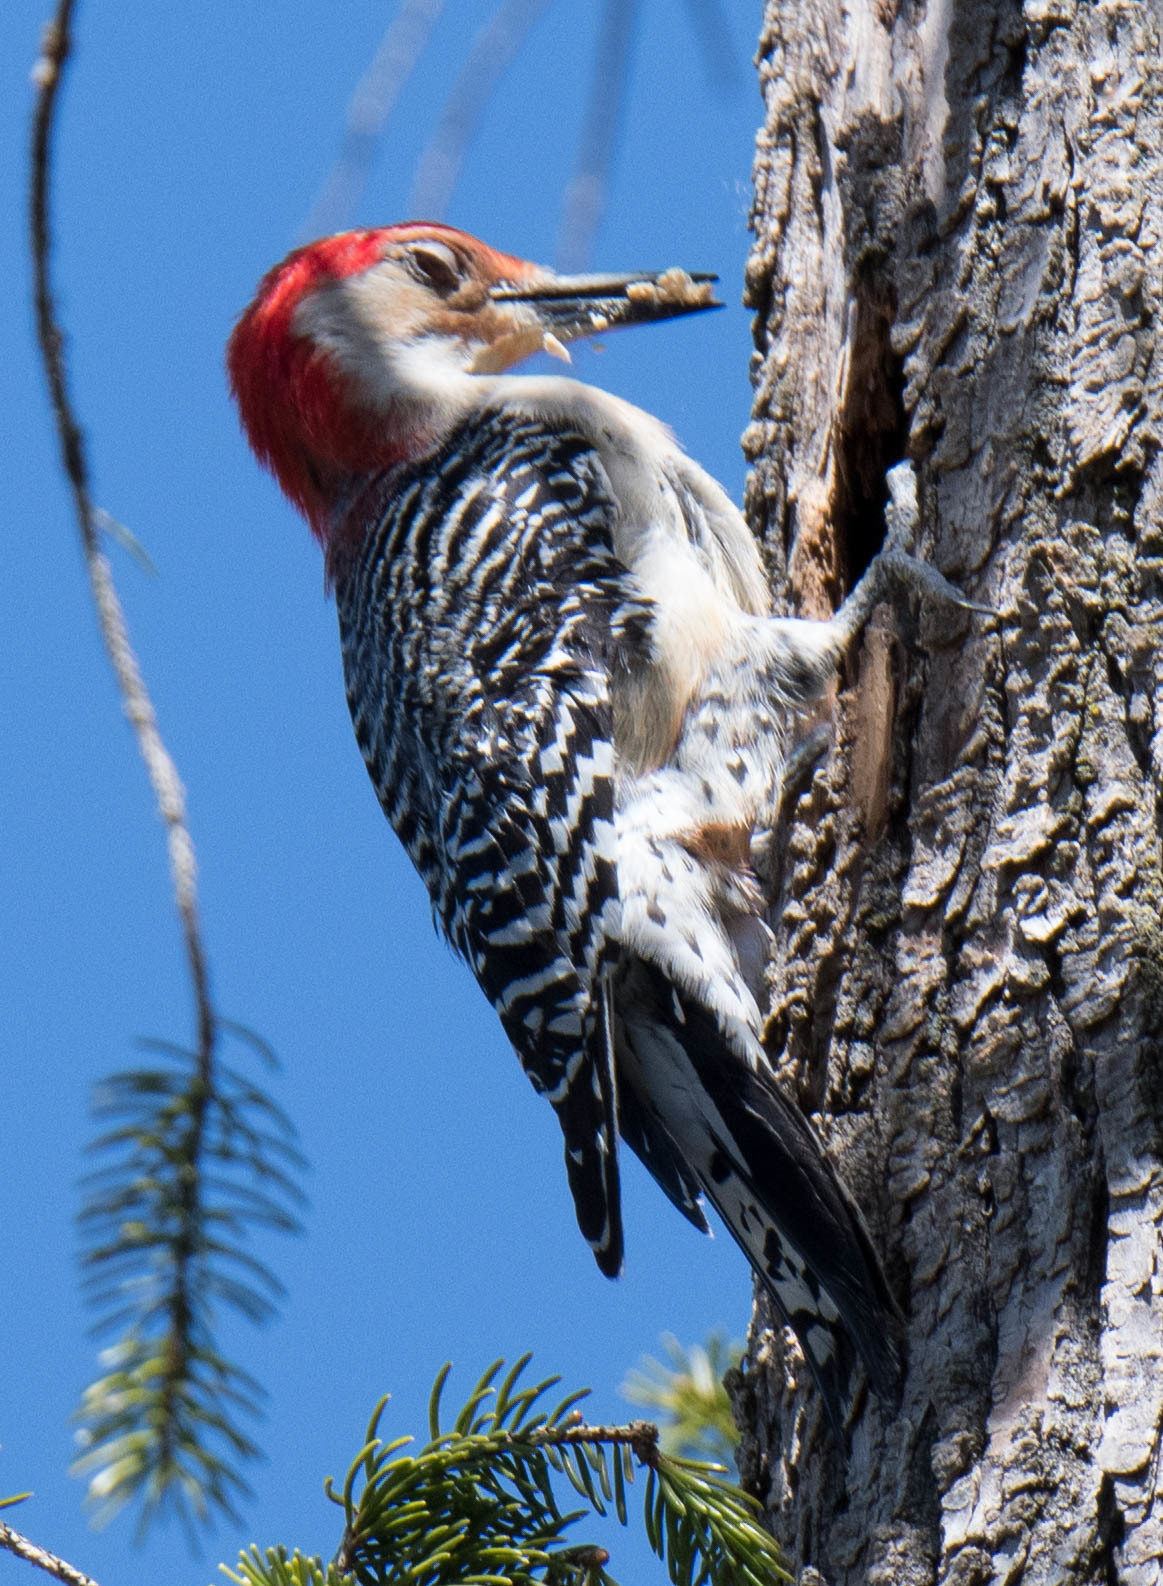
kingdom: Animalia
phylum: Chordata
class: Aves
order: Piciformes
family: Picidae
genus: Melanerpes
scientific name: Melanerpes carolinus
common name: Red-bellied woodpecker
